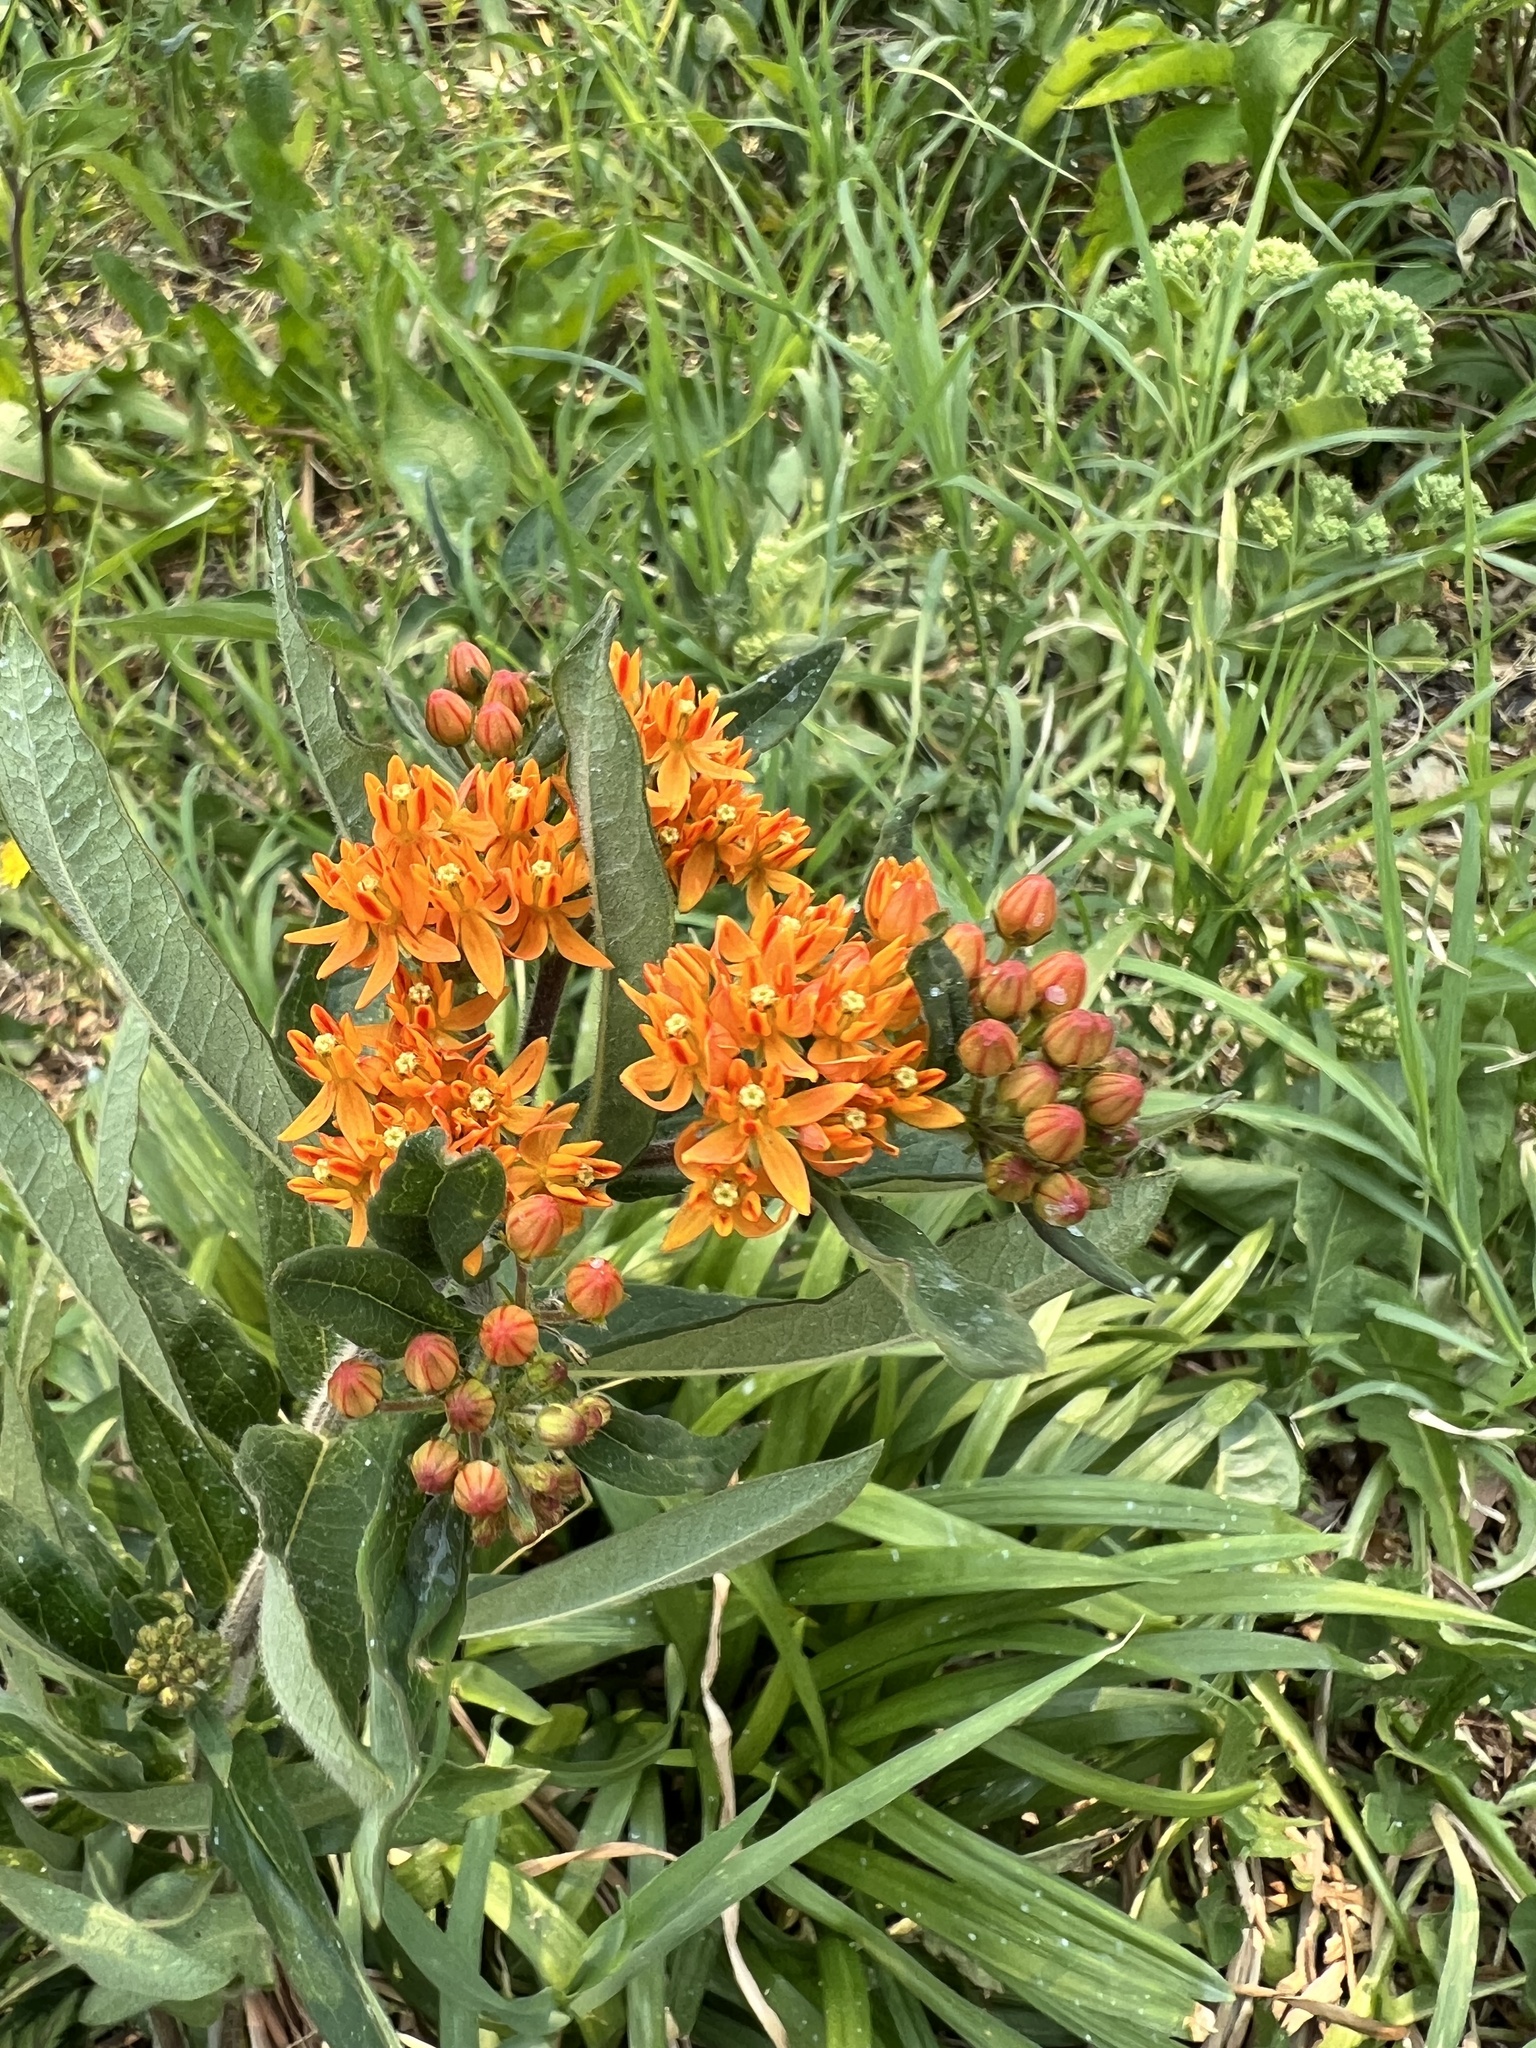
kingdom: Plantae
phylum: Tracheophyta
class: Magnoliopsida
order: Gentianales
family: Apocynaceae
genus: Asclepias
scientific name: Asclepias tuberosa
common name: Butterfly milkweed
